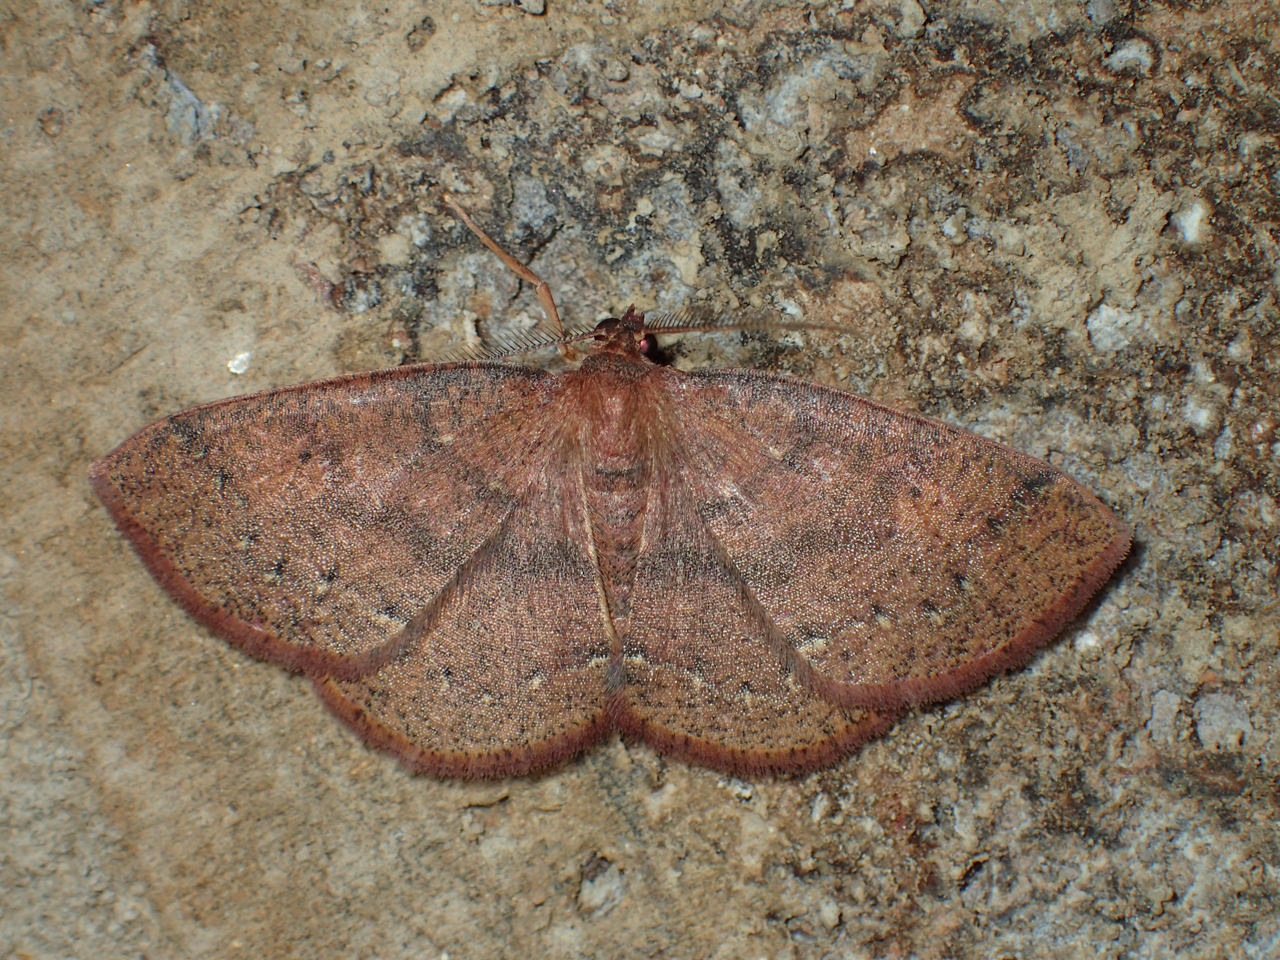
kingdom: Animalia
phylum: Arthropoda
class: Insecta
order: Lepidoptera
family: Geometridae
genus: Ilexia
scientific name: Ilexia intractata
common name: Black-dotted ruddy moth
